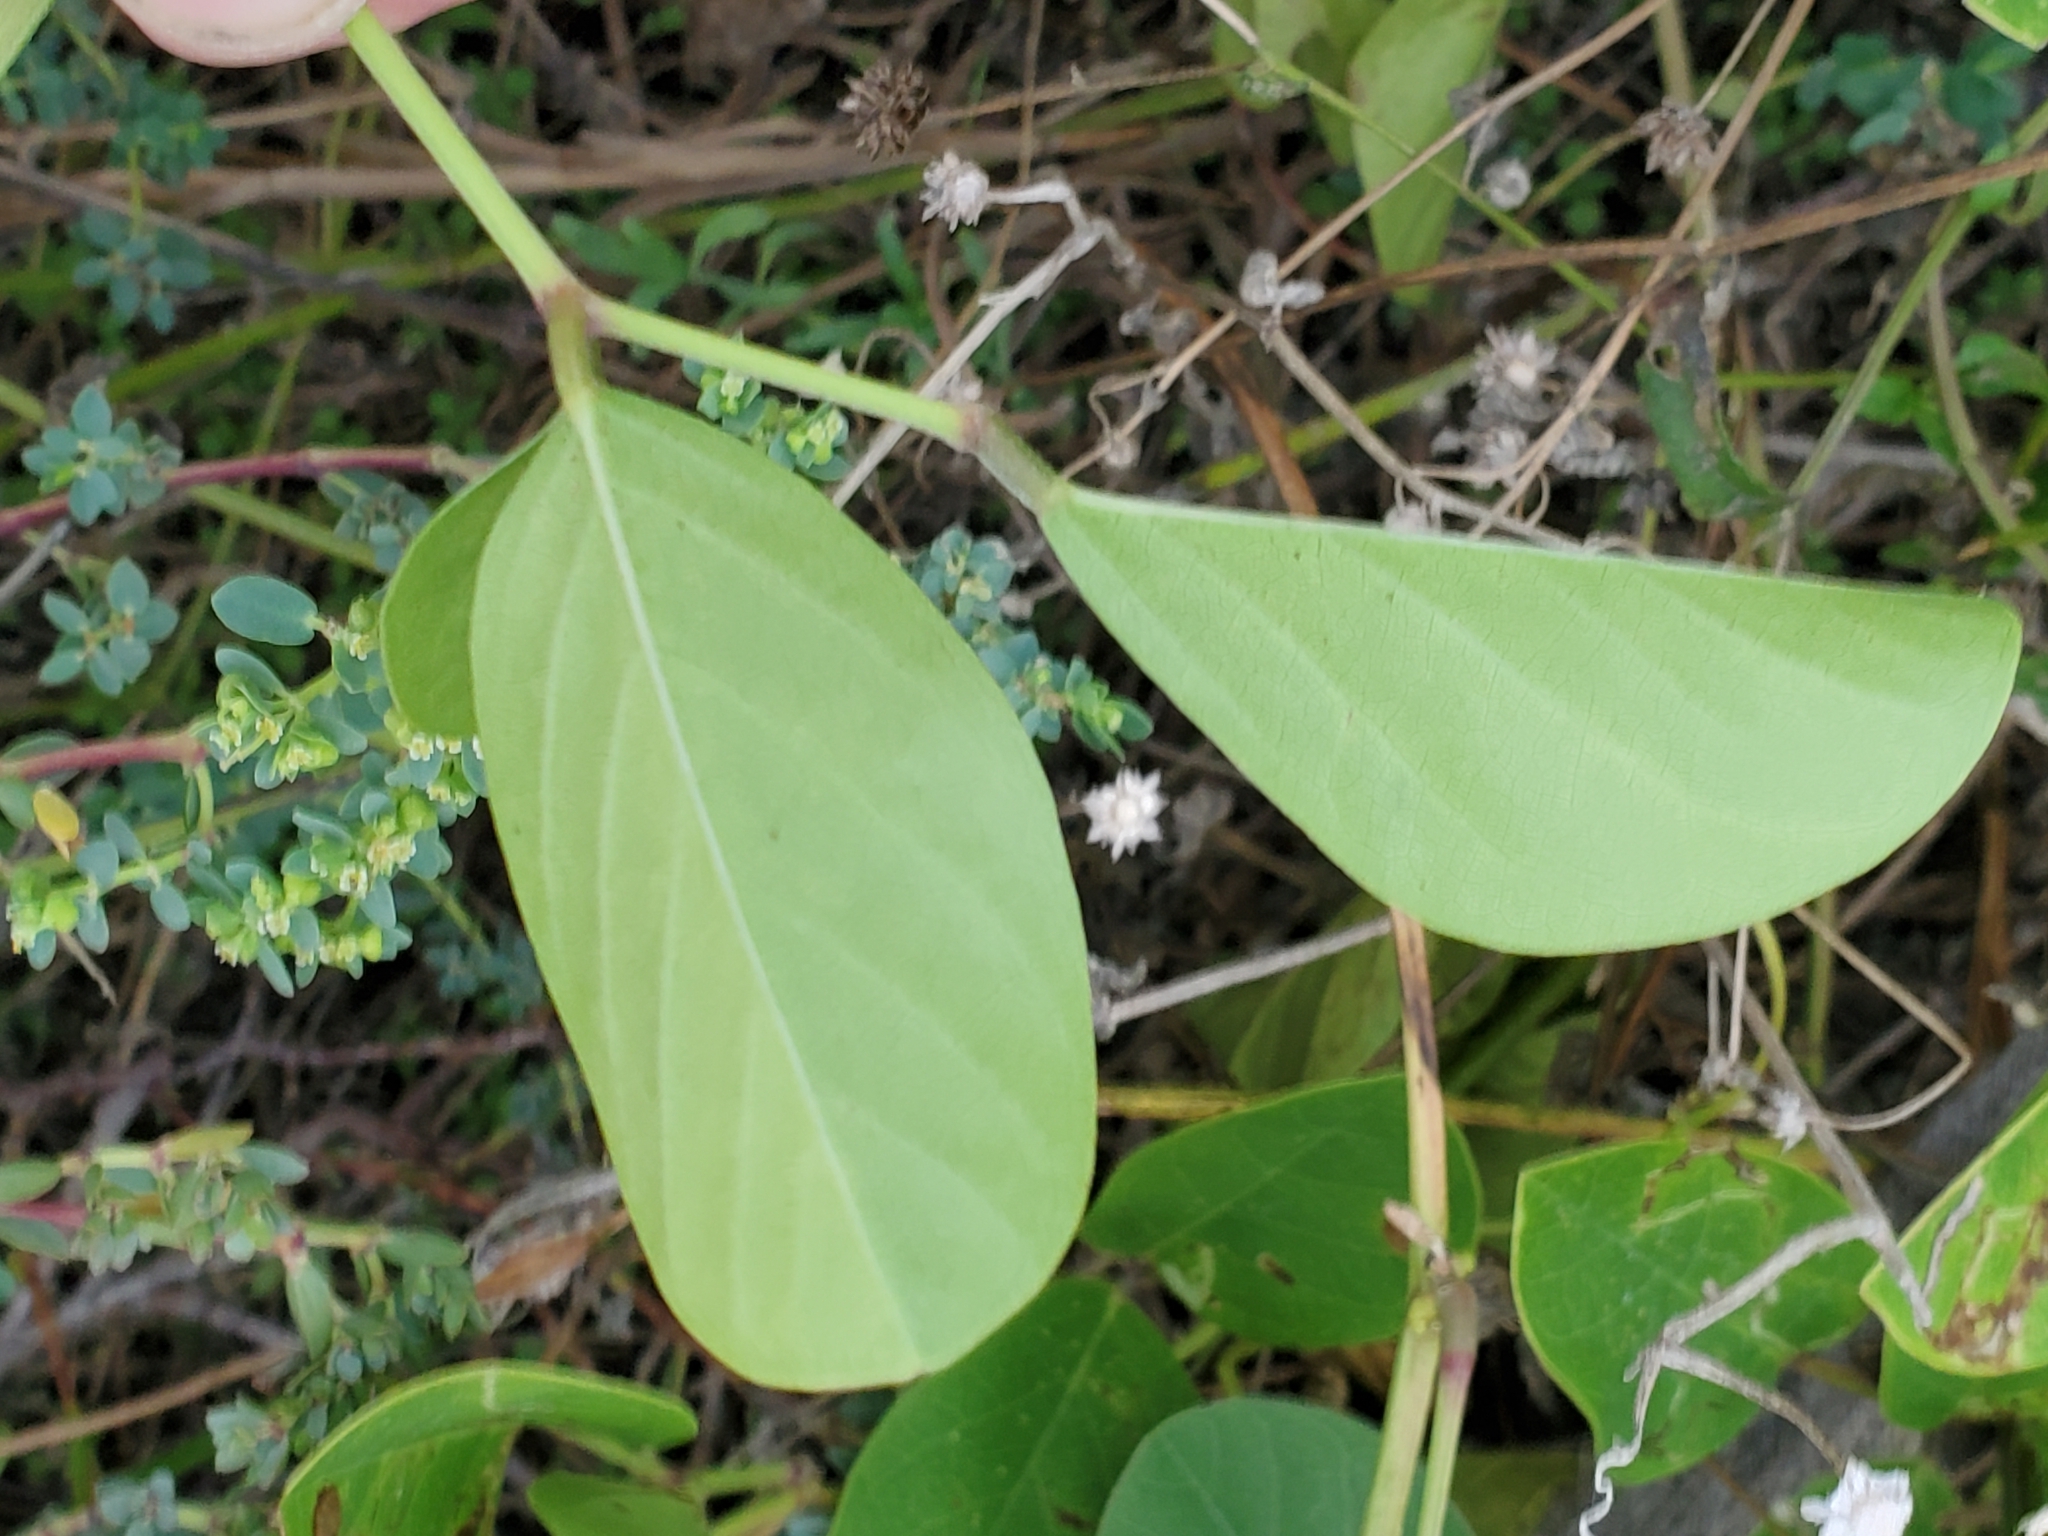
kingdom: Plantae
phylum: Tracheophyta
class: Magnoliopsida
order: Fabales
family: Fabaceae
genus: Canavalia
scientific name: Canavalia rosea
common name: Beach-bean
